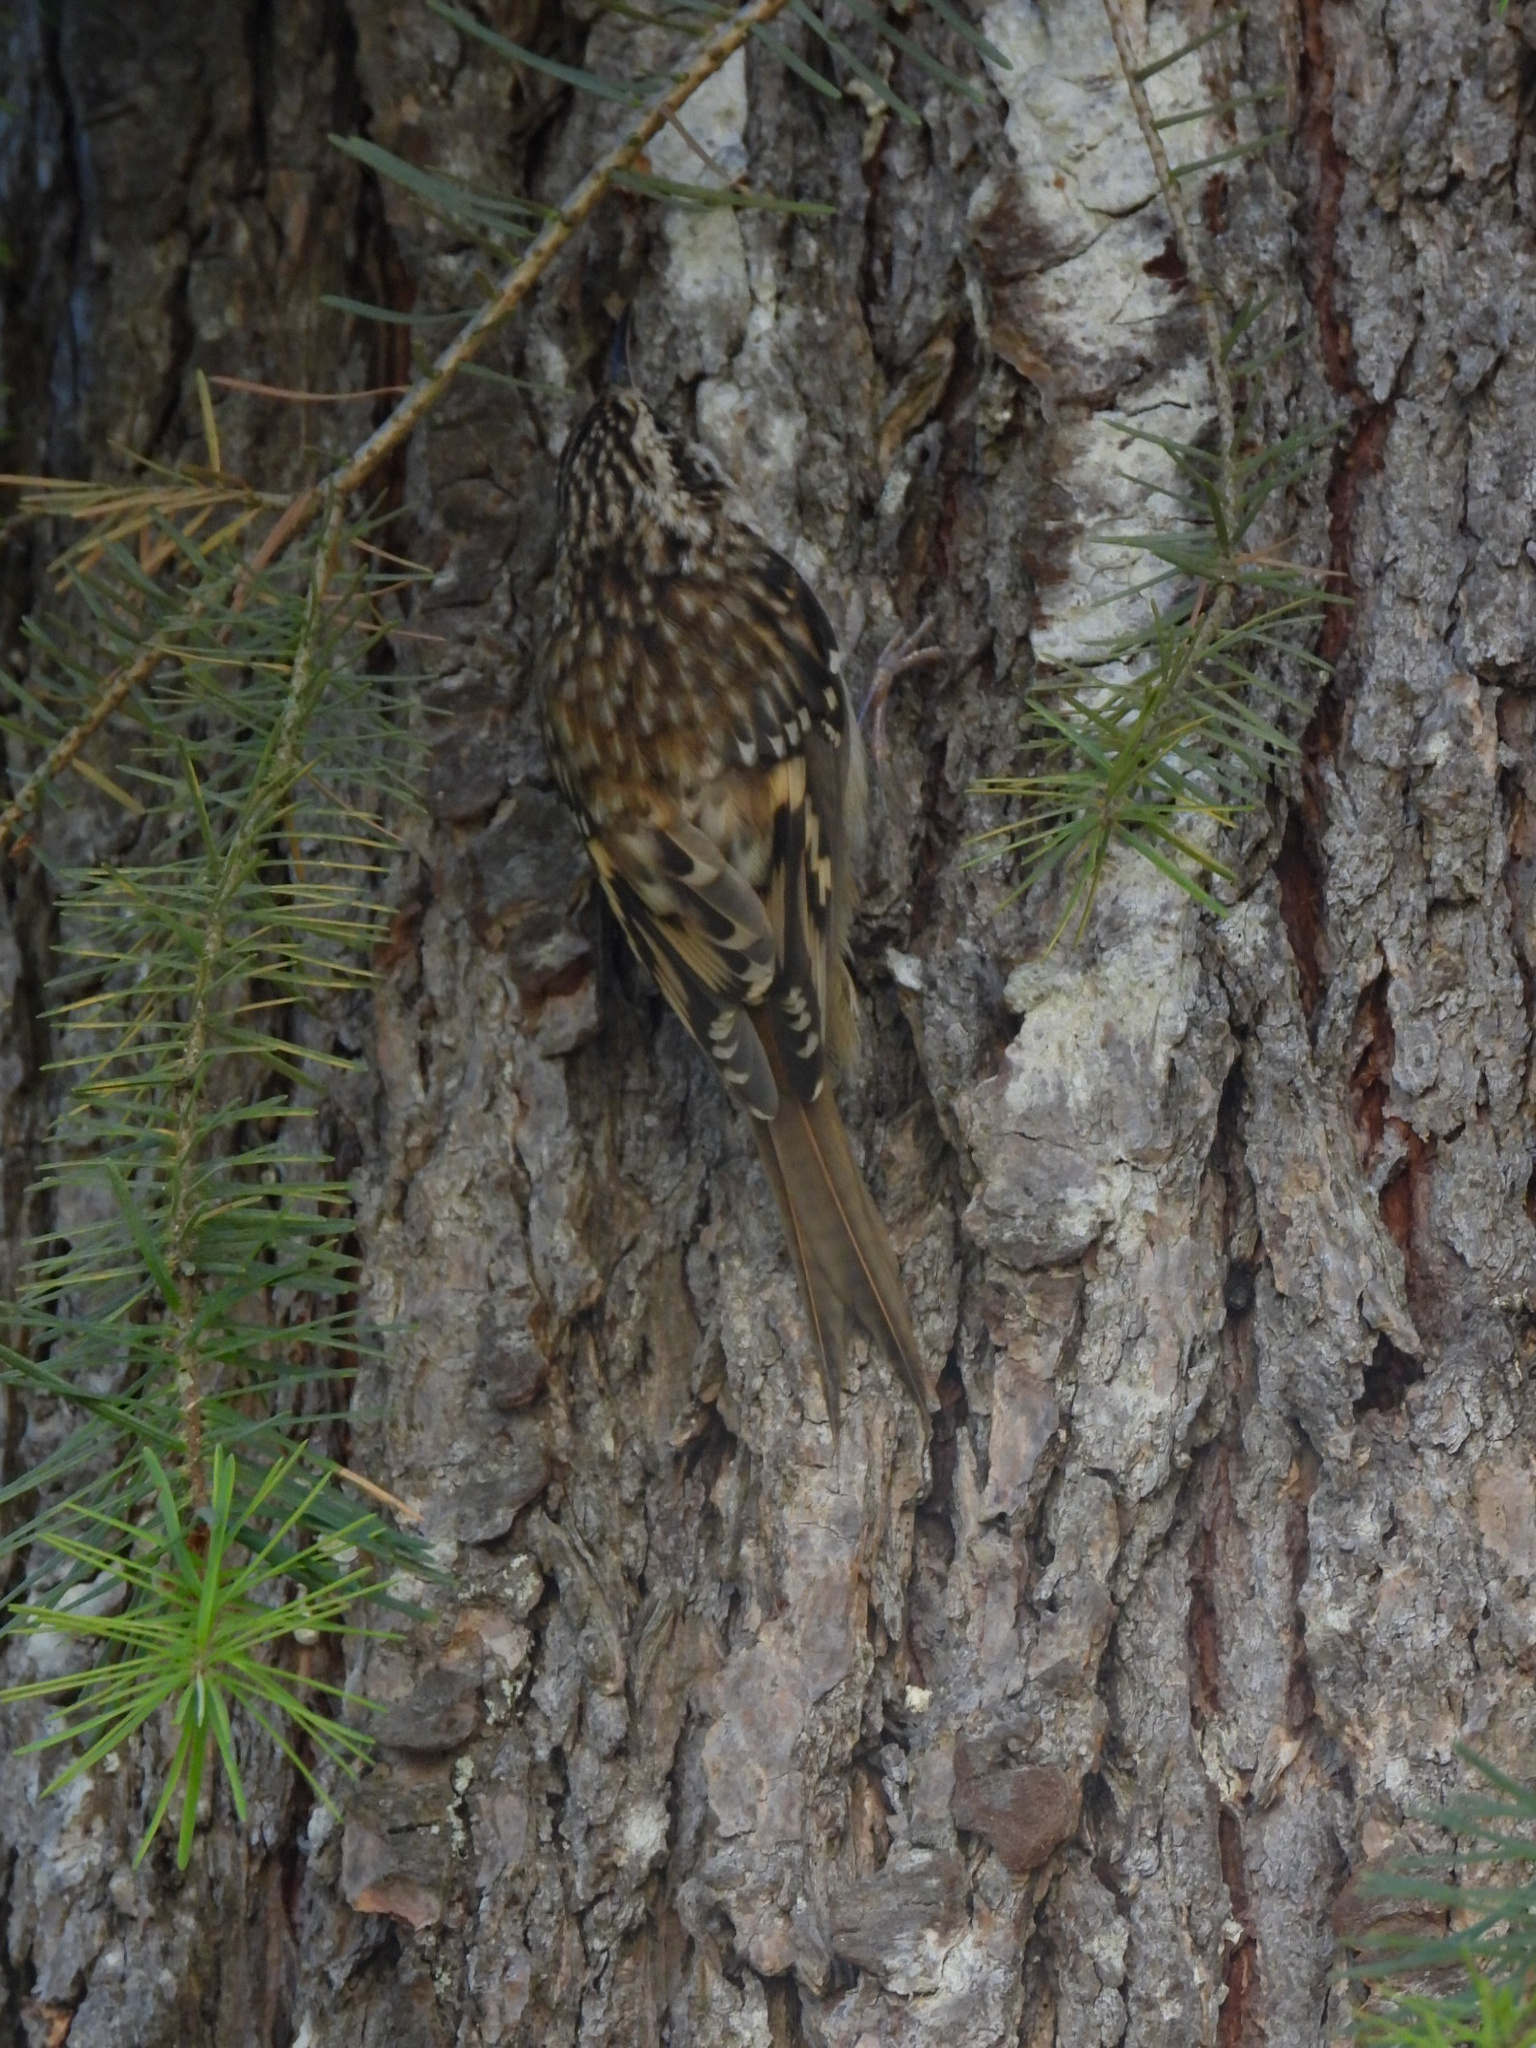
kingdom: Animalia
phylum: Chordata
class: Aves
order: Passeriformes
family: Certhiidae
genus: Certhia
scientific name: Certhia americana
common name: Brown creeper
